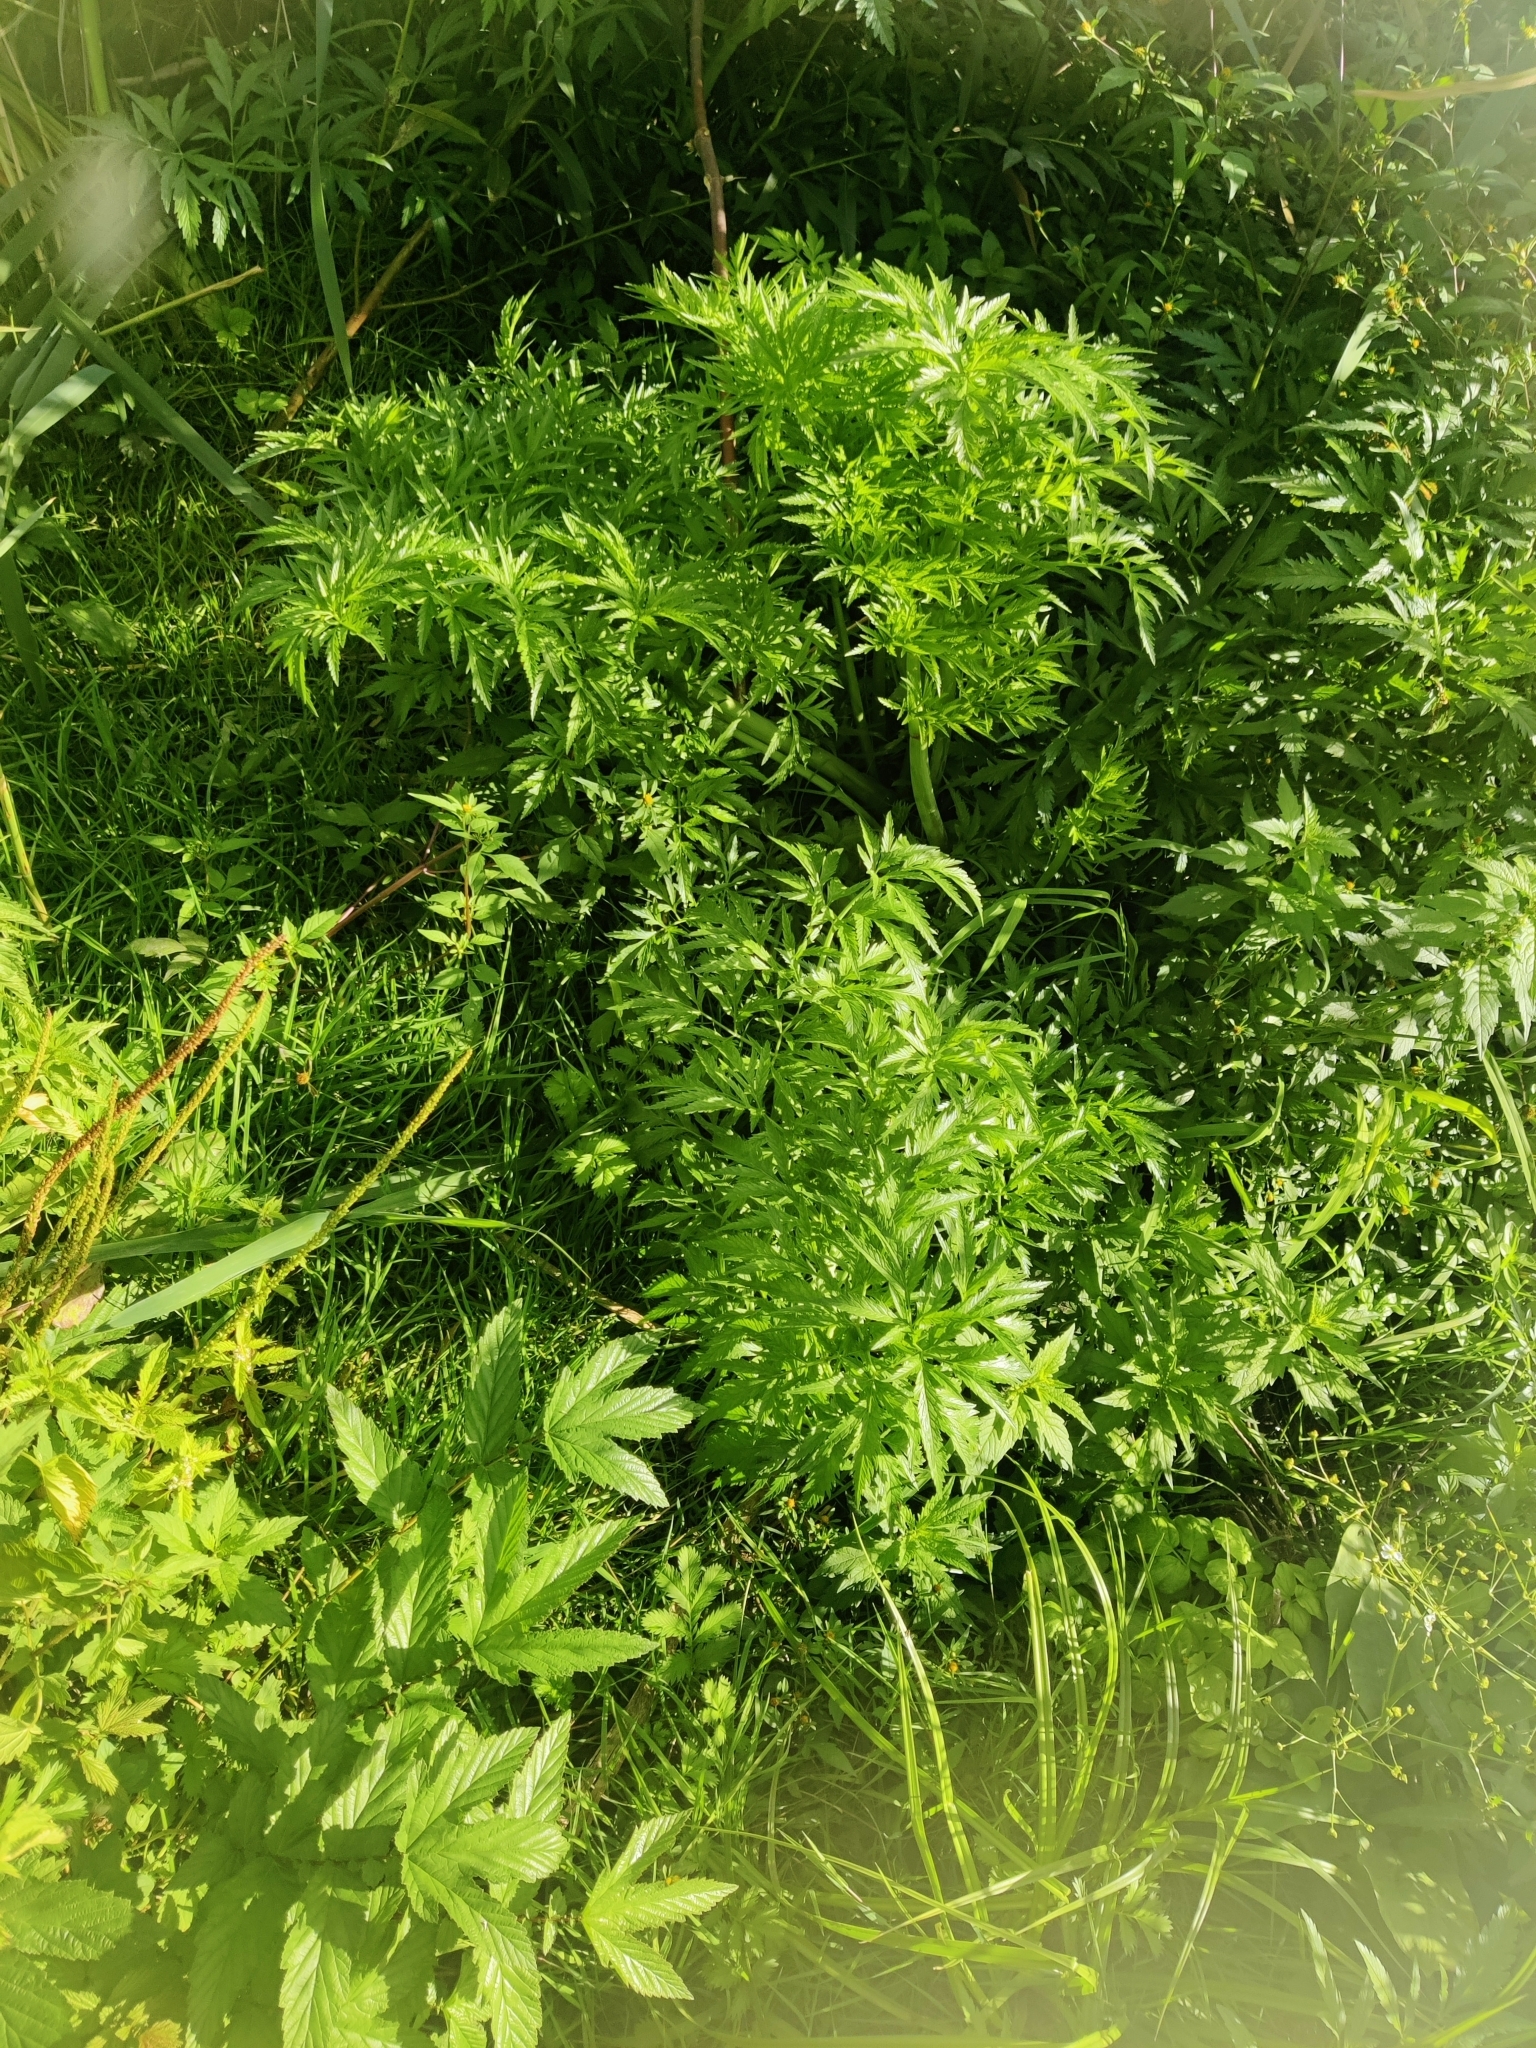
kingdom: Plantae
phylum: Tracheophyta
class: Magnoliopsida
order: Apiales
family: Apiaceae
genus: Cicuta
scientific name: Cicuta virosa
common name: Cowbane
